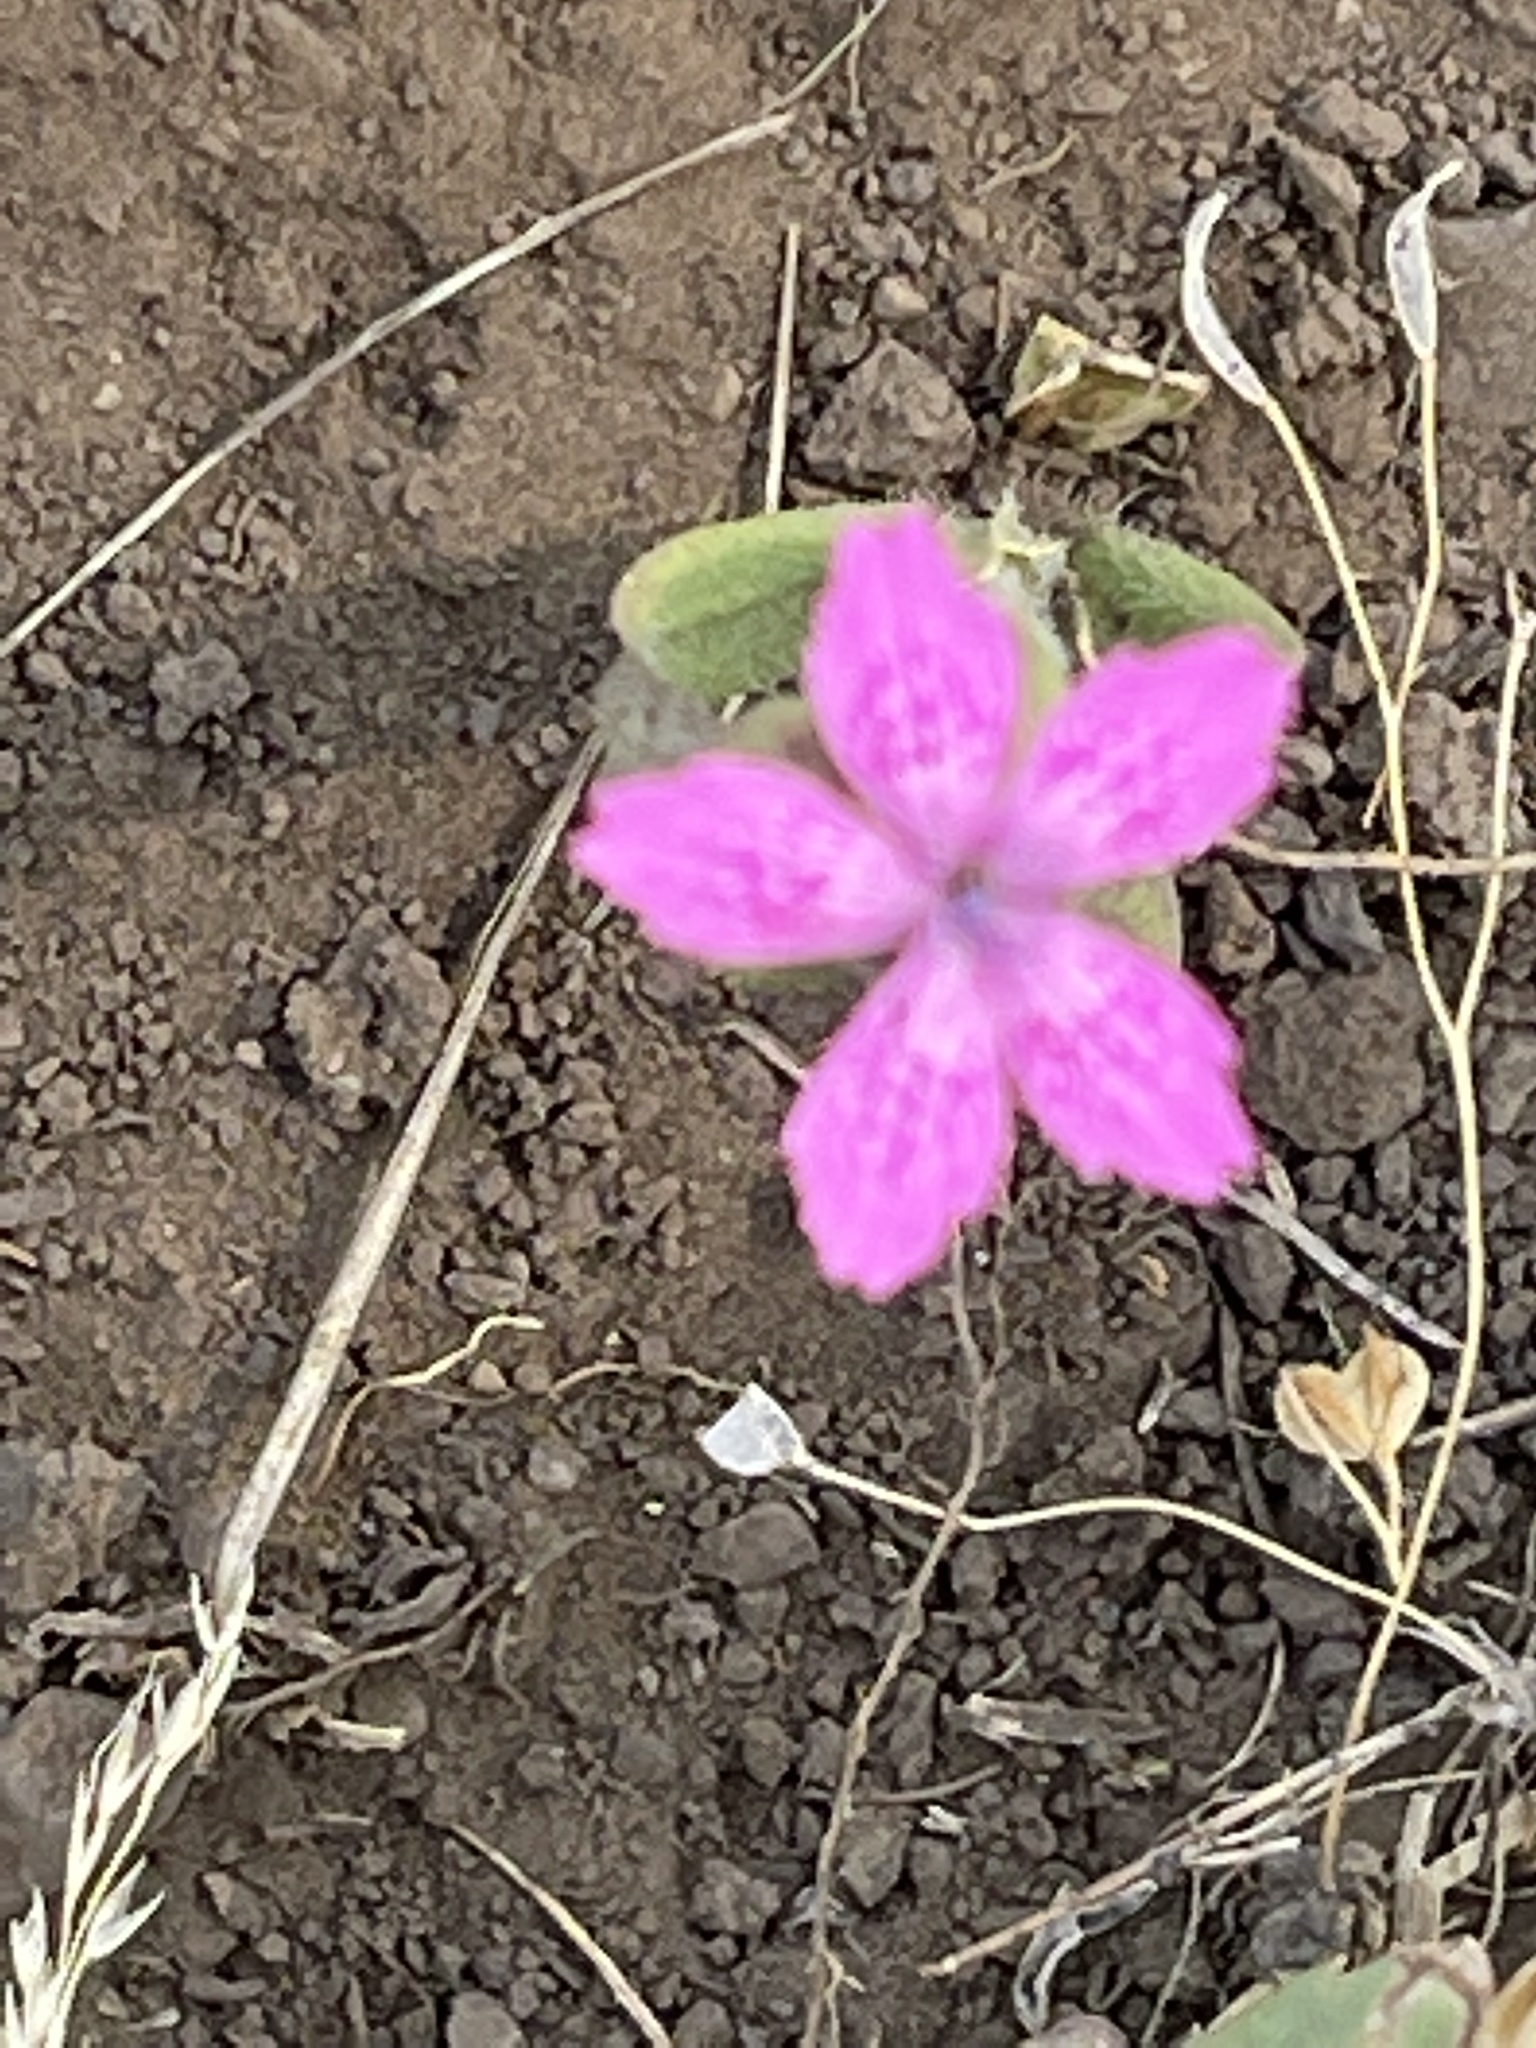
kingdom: Plantae
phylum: Tracheophyta
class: Magnoliopsida
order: Caryophyllales
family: Caryophyllaceae
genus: Dianthus
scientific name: Dianthus armeria
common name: Deptford pink
